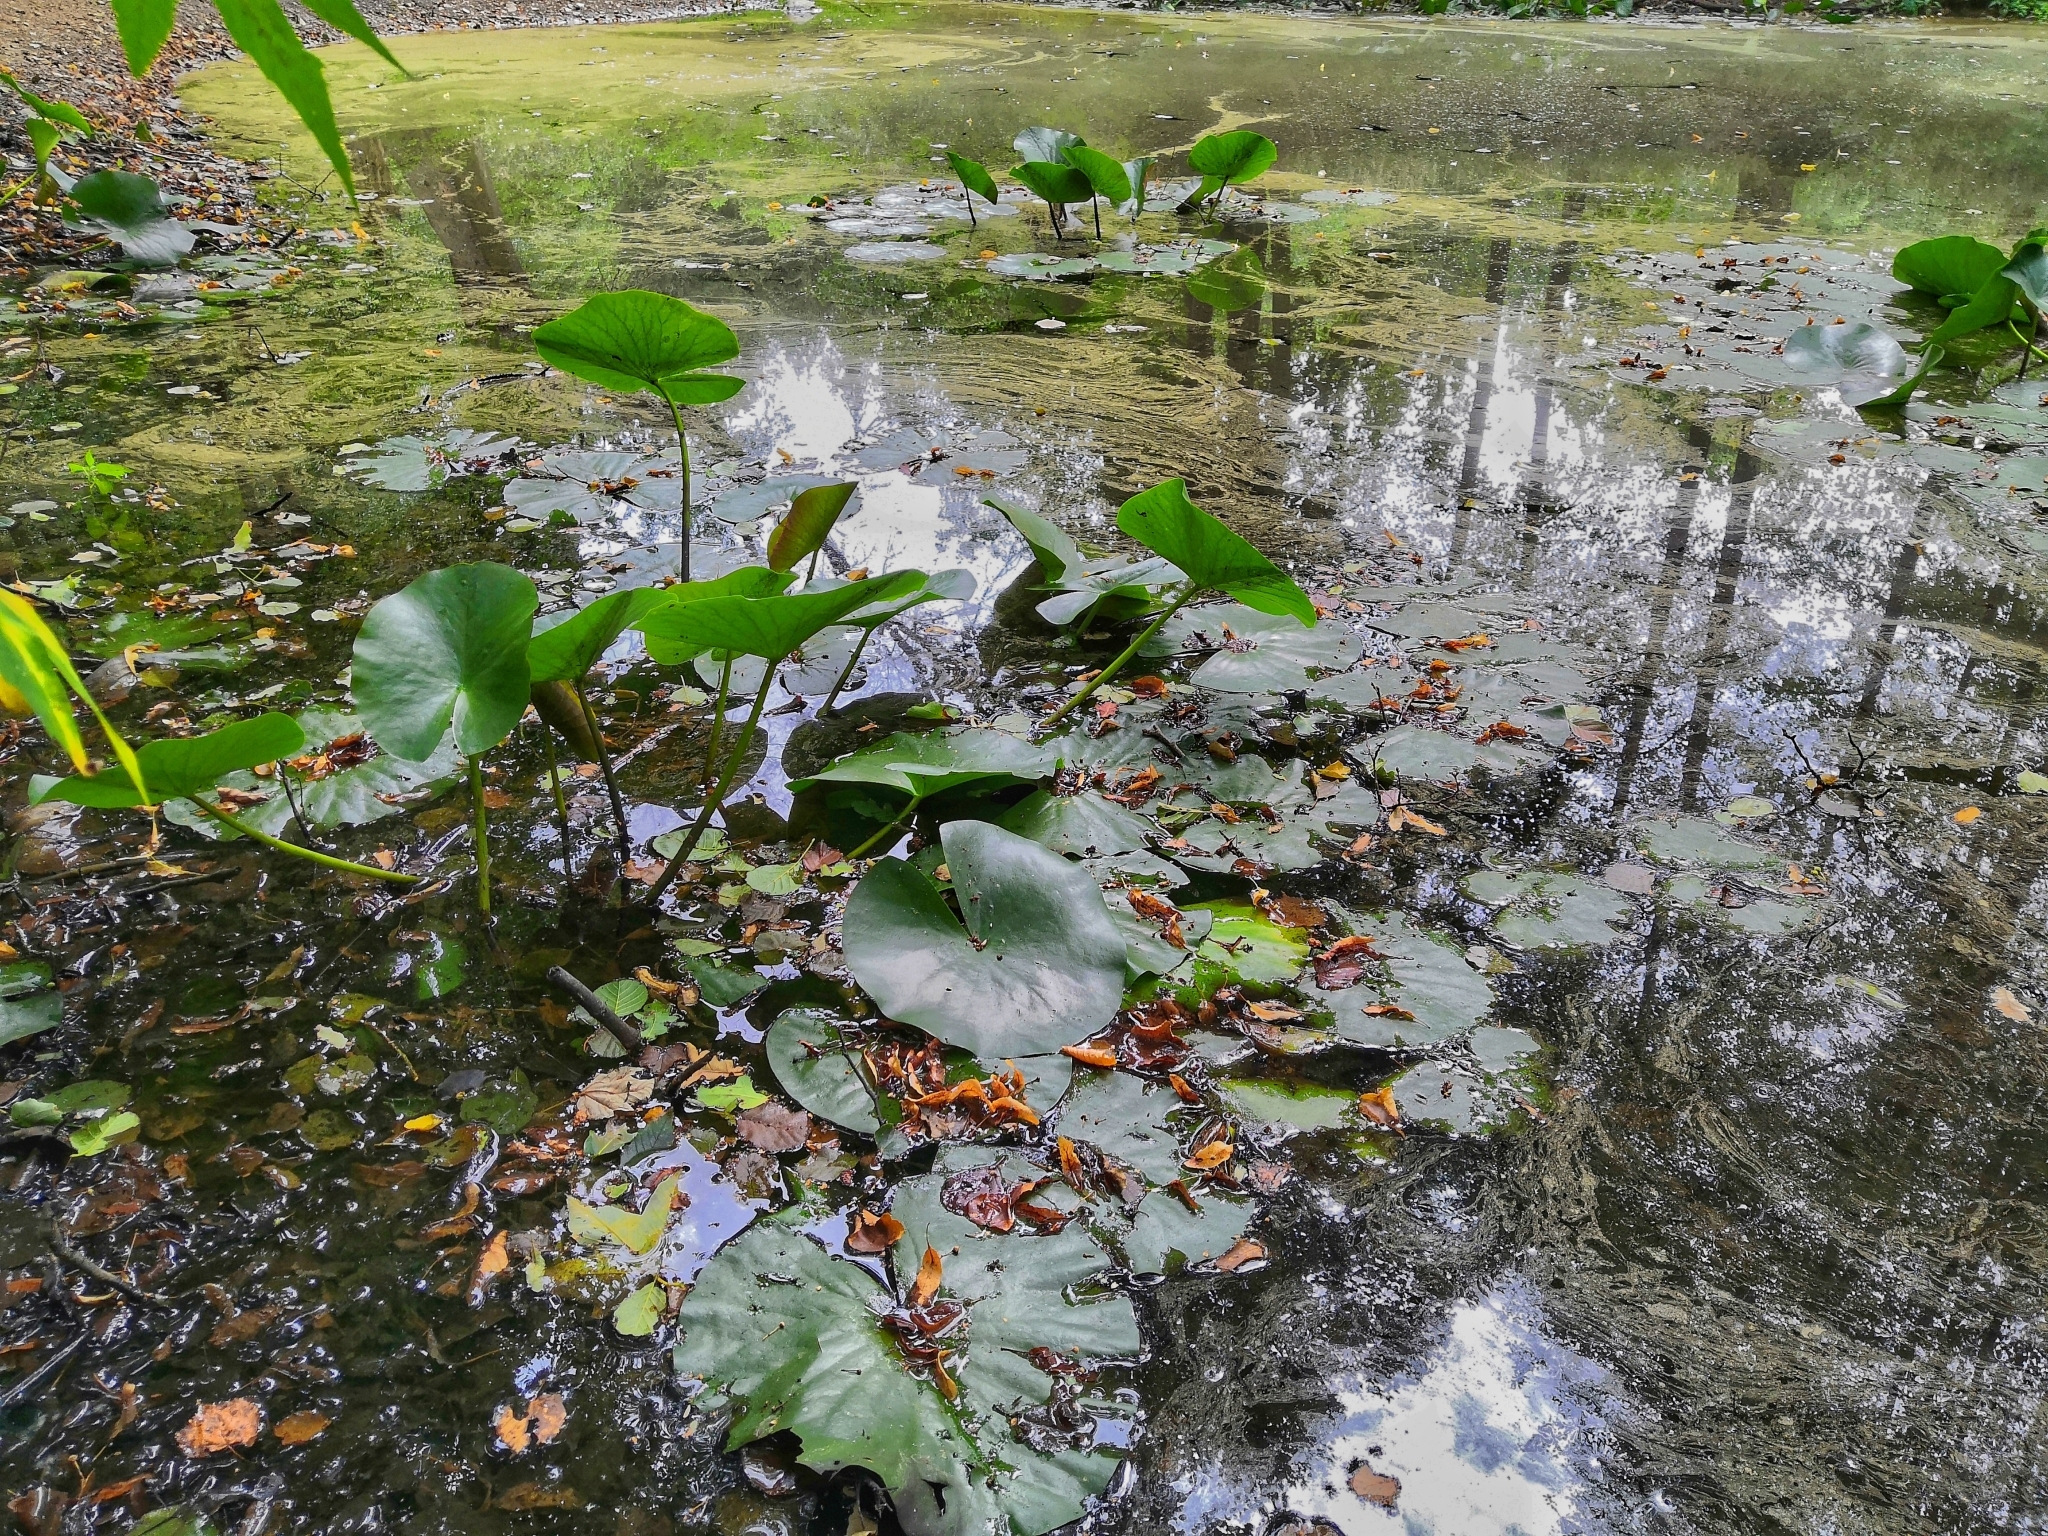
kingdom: Plantae
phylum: Tracheophyta
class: Magnoliopsida
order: Nymphaeales
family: Nymphaeaceae
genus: Nuphar
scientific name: Nuphar lutea
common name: Yellow water-lily
